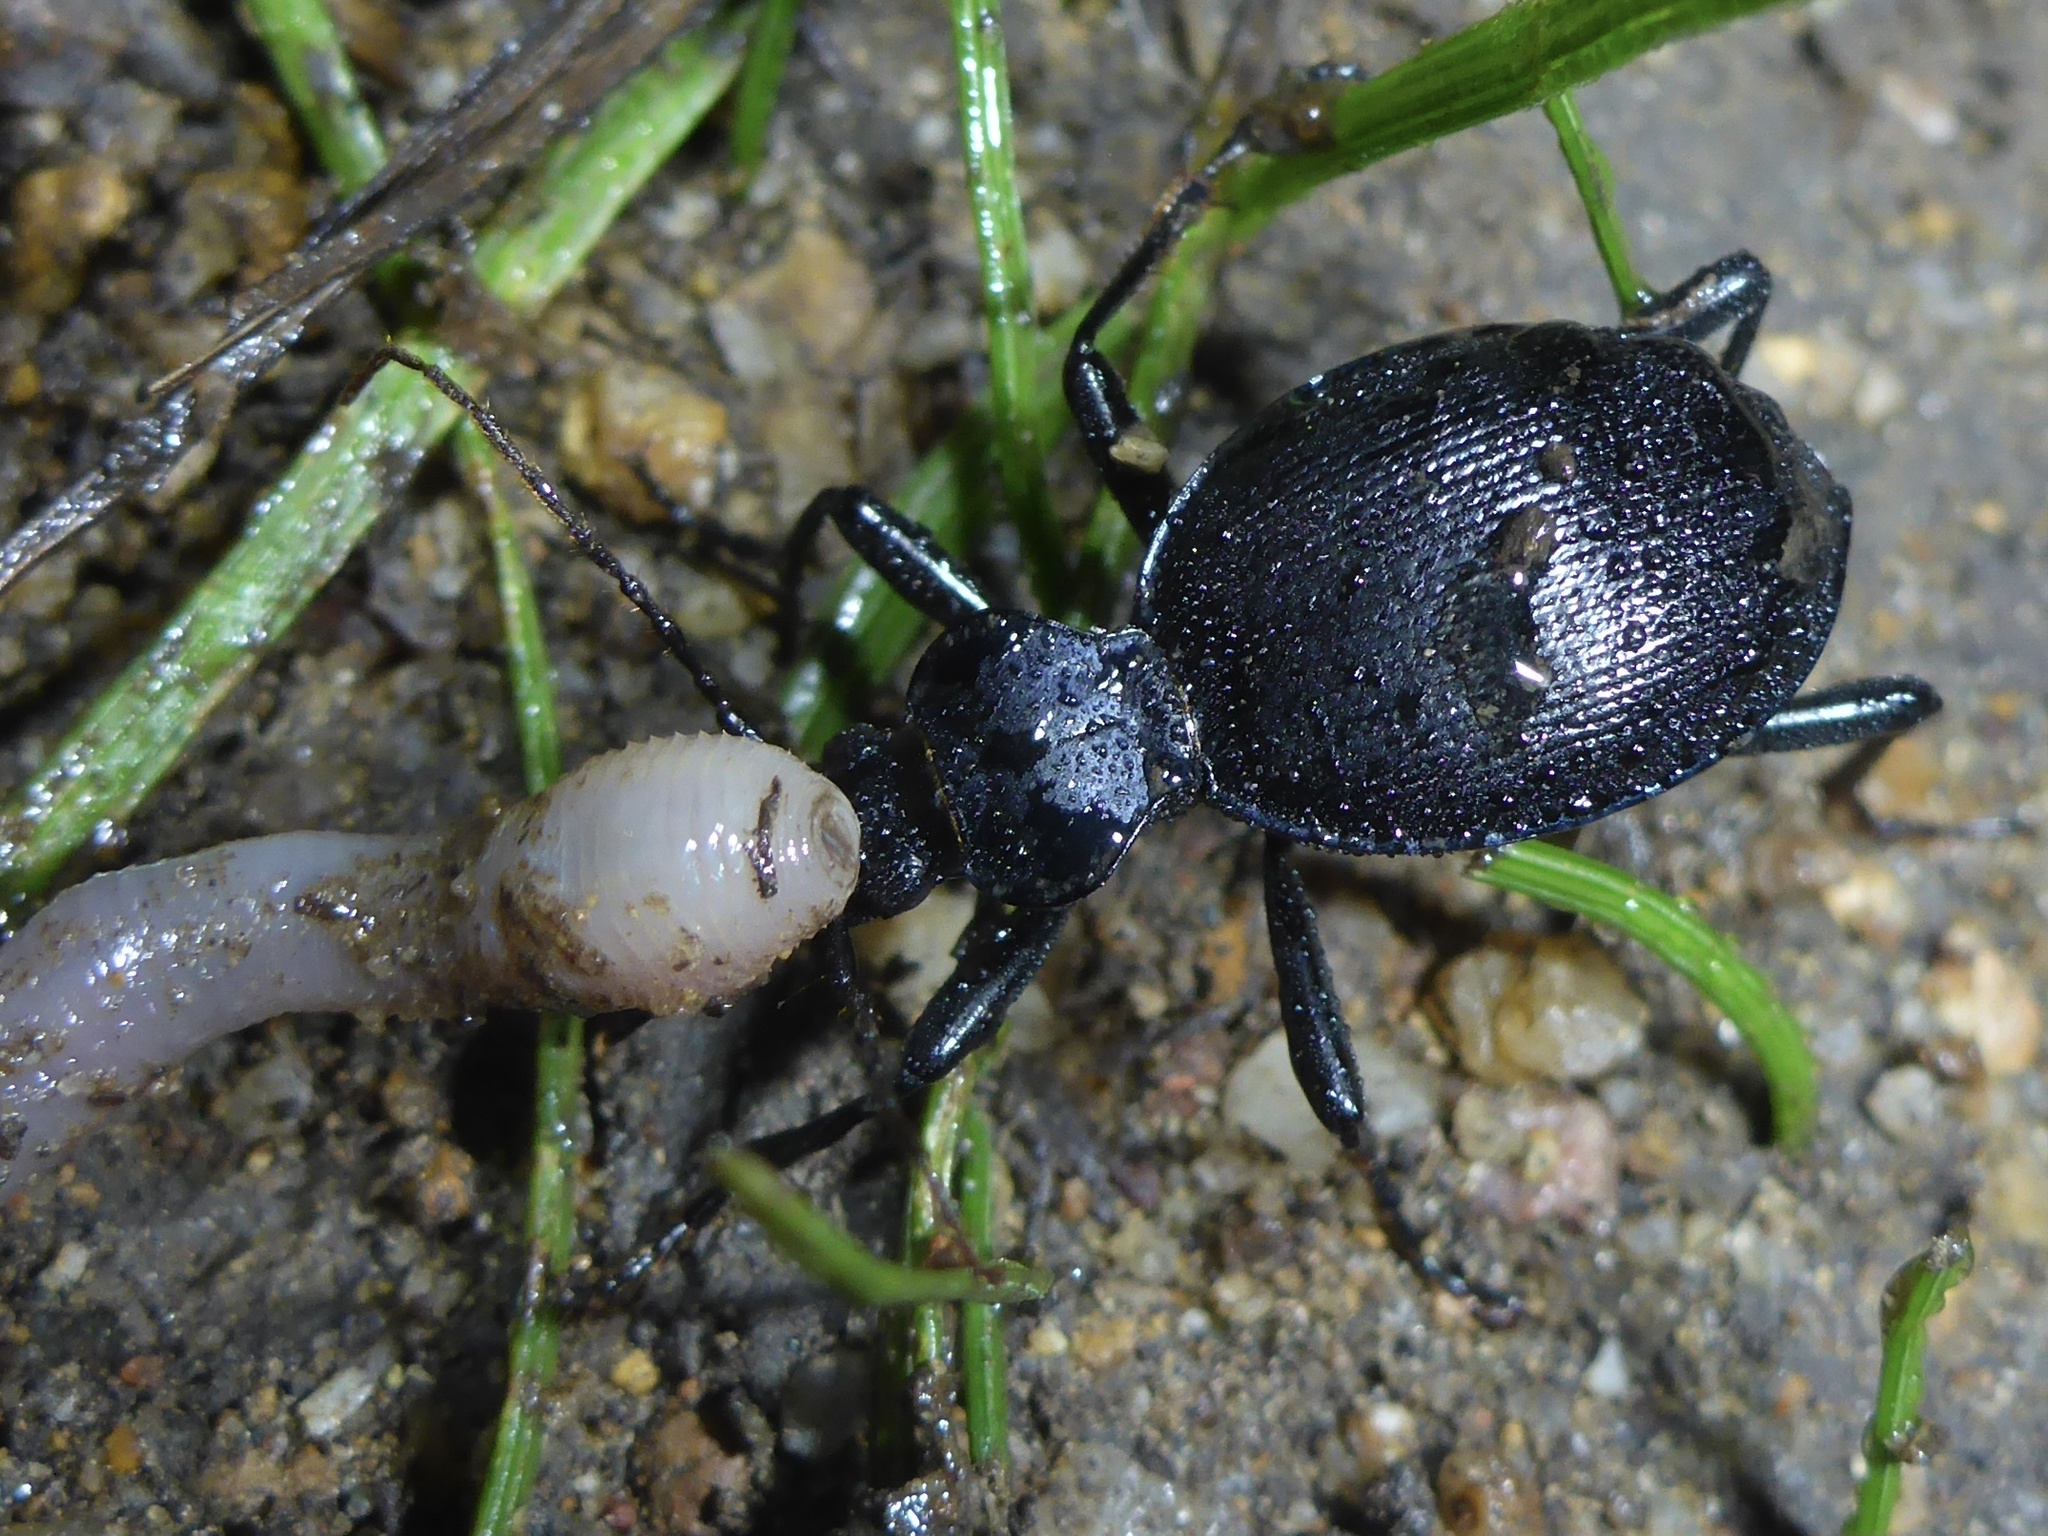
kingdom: Animalia
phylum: Arthropoda
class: Insecta
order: Coleoptera
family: Carabidae
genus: Scaphinotus
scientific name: Scaphinotus interruptus
